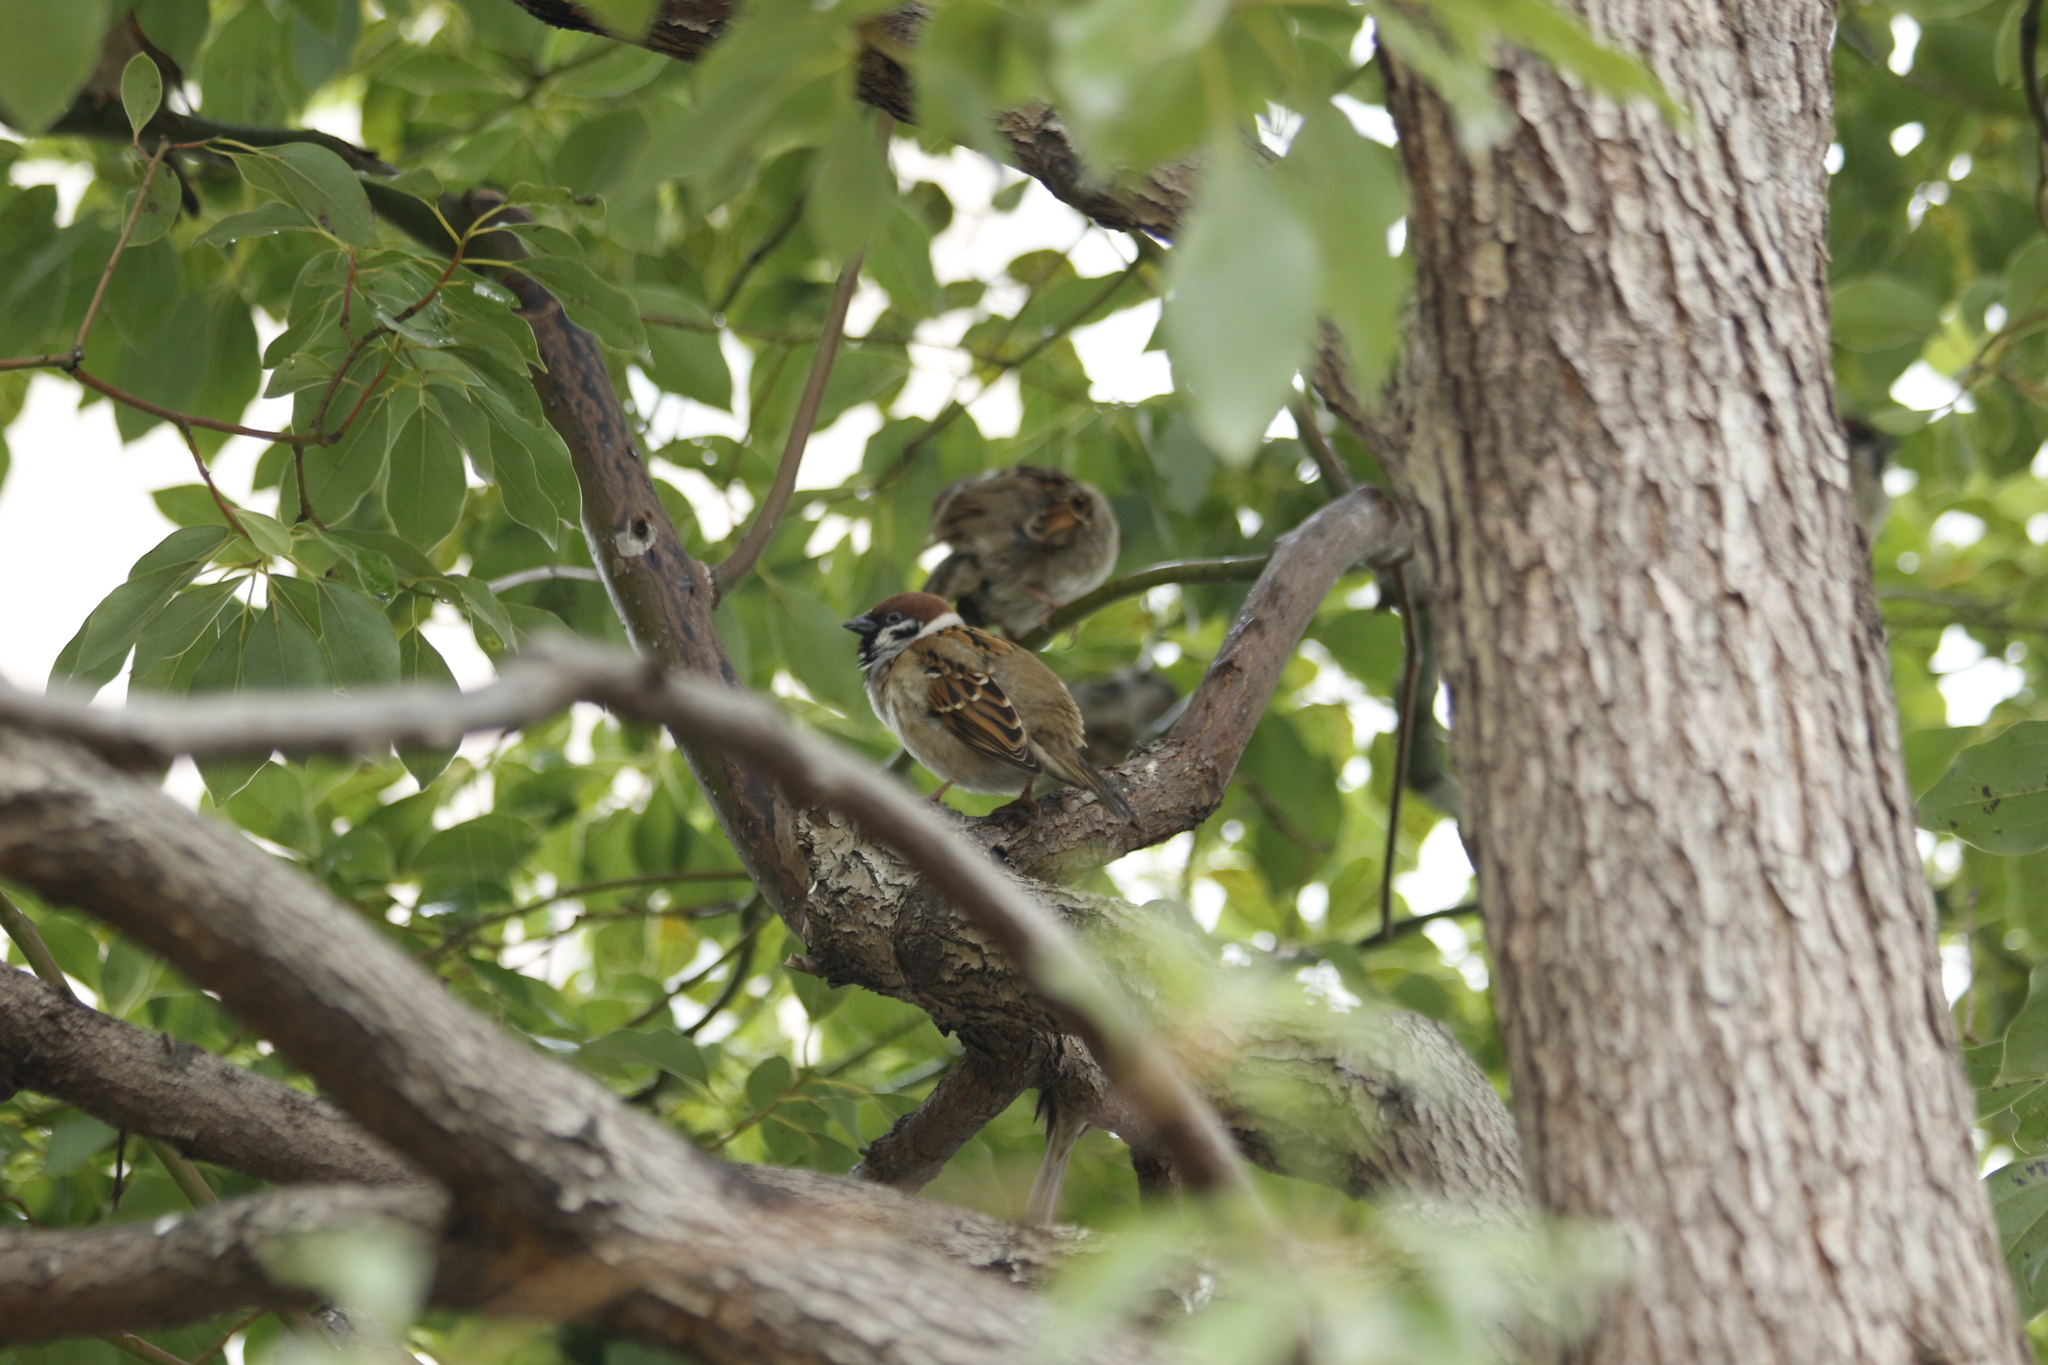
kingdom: Animalia
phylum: Chordata
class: Aves
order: Passeriformes
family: Passeridae
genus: Passer
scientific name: Passer montanus
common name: Eurasian tree sparrow
